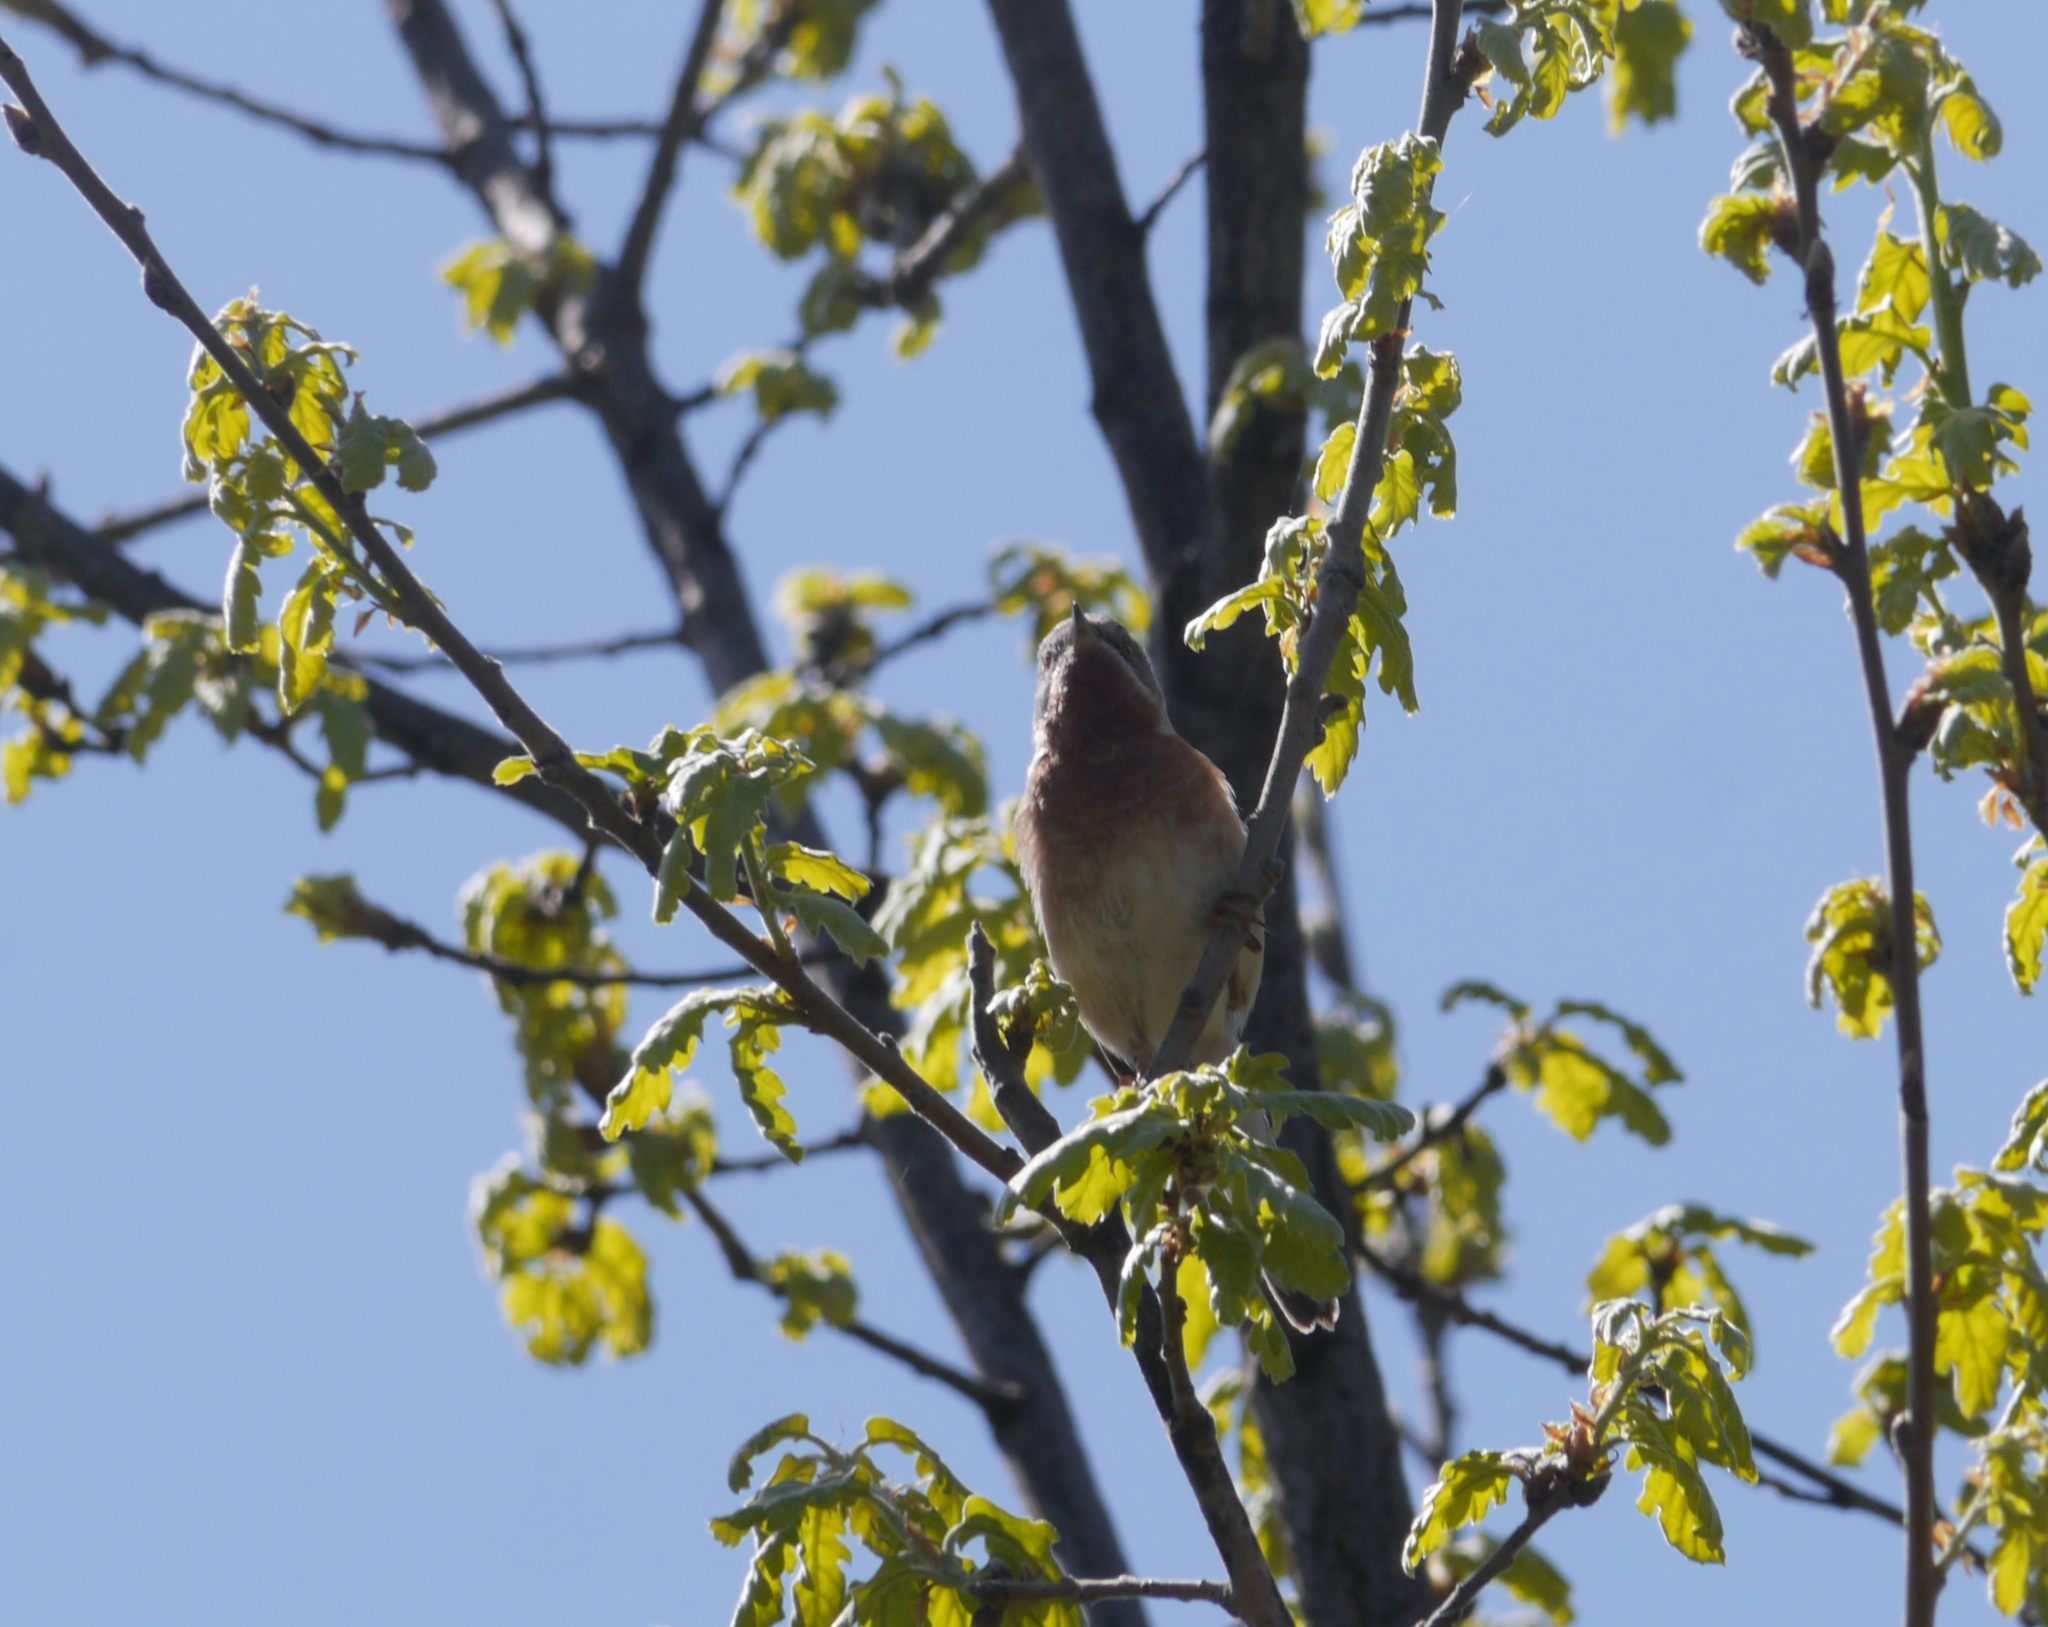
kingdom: Animalia
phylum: Chordata
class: Aves
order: Passeriformes
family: Sylviidae
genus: Curruca
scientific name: Curruca cantillans
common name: Subalpine warbler
